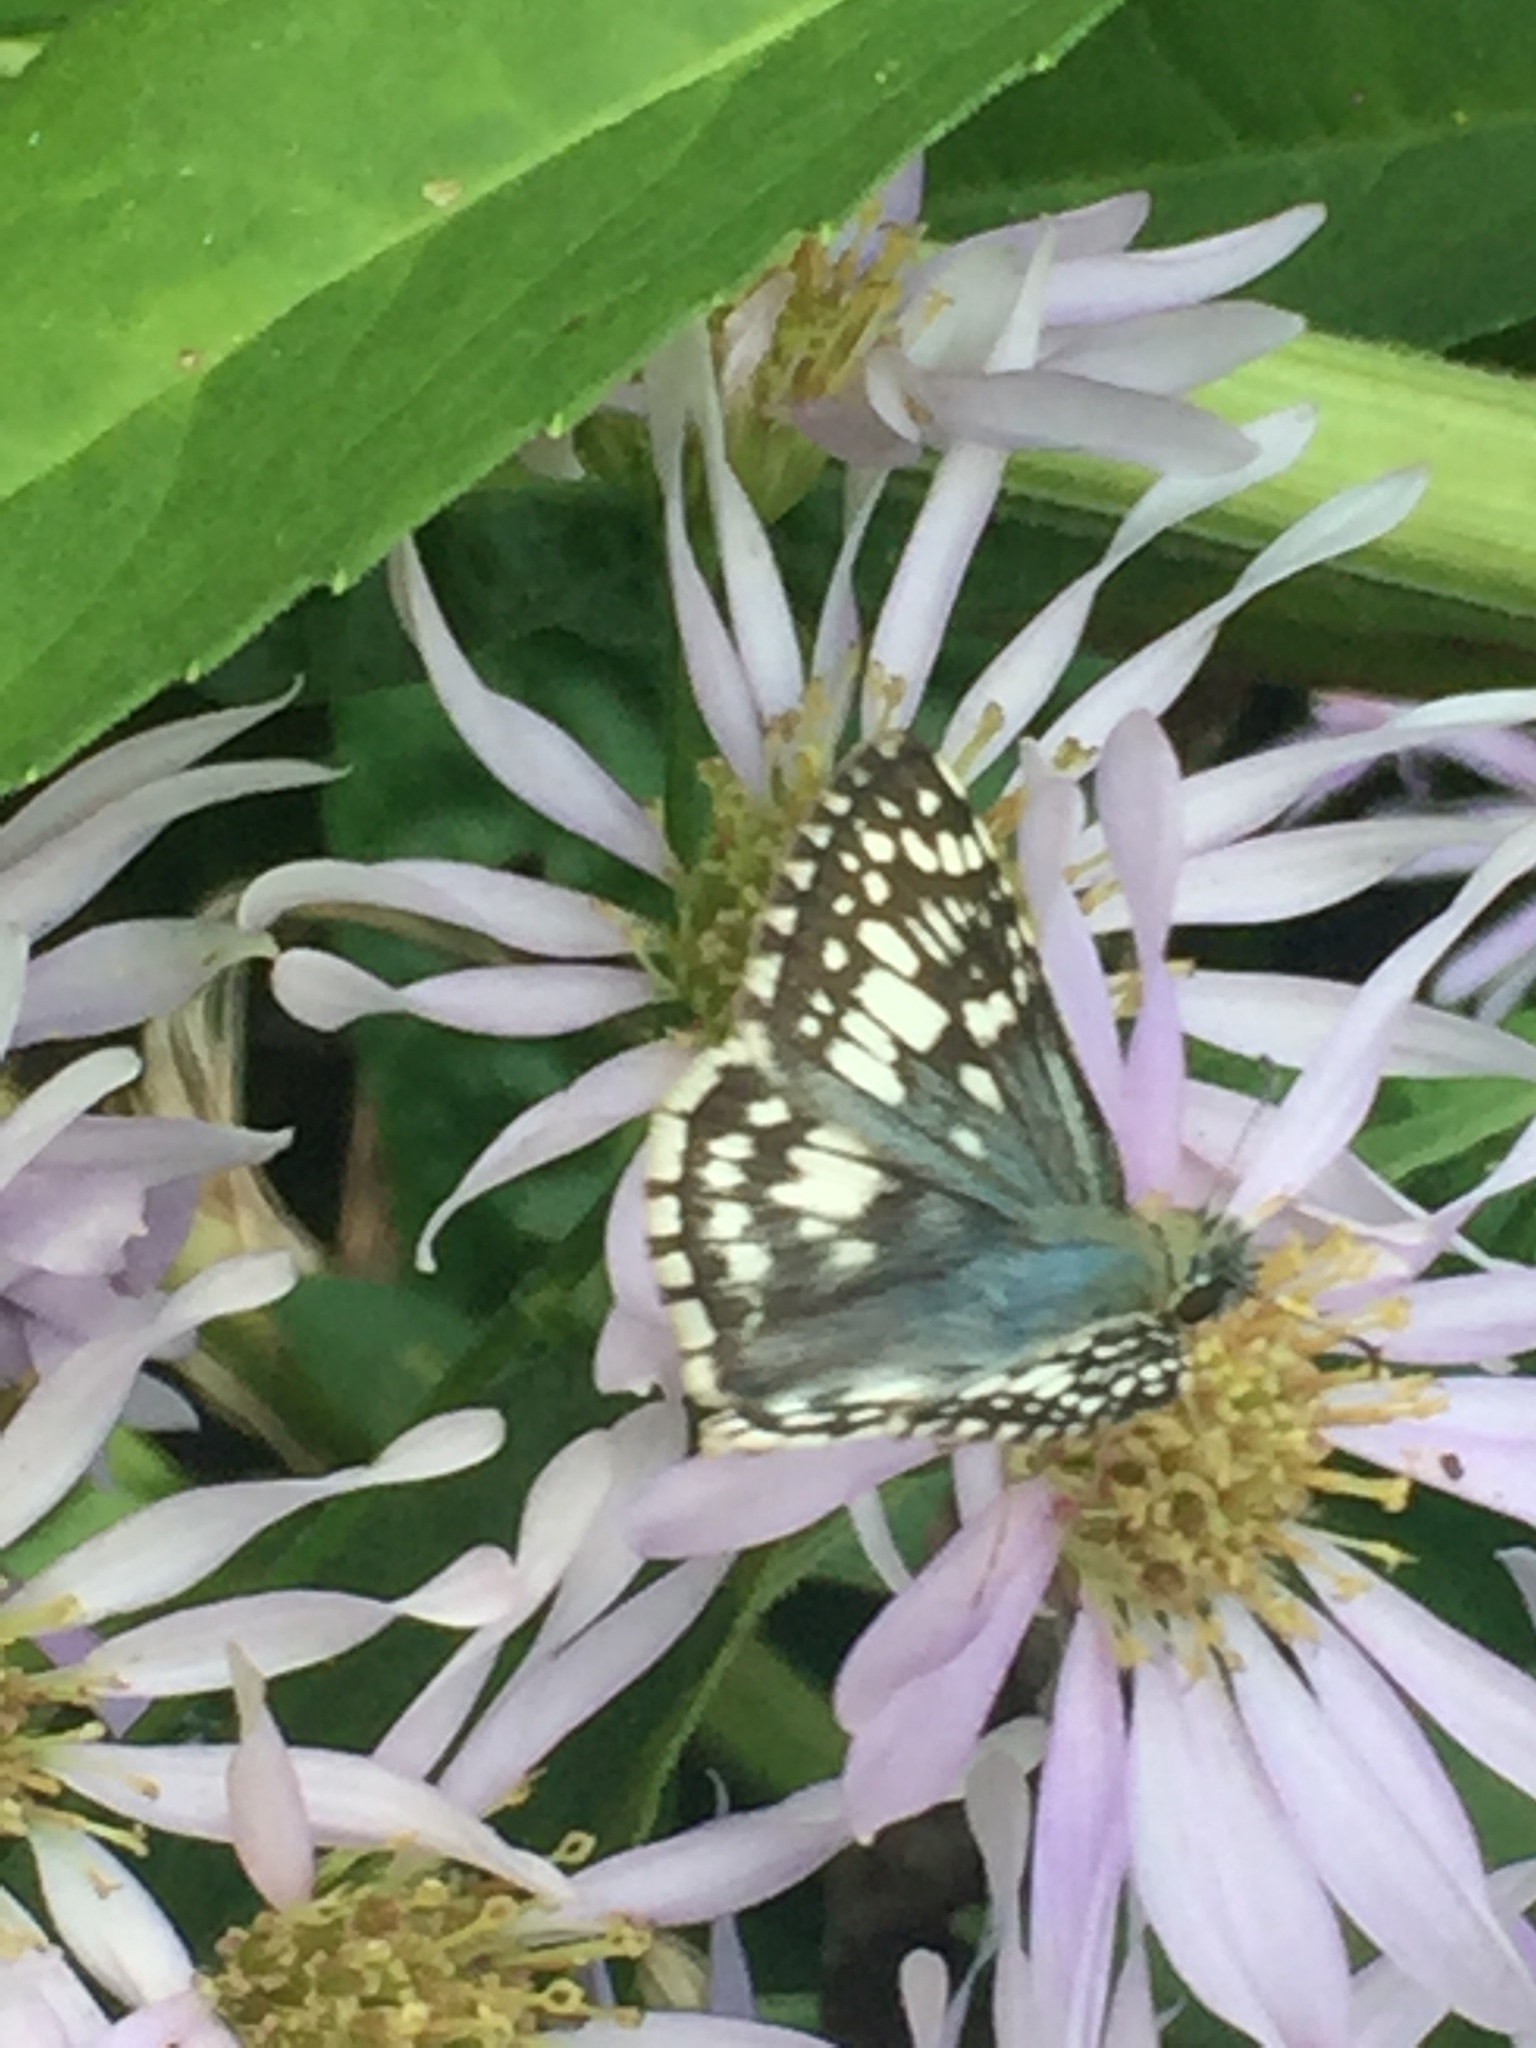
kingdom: Animalia
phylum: Arthropoda
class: Insecta
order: Lepidoptera
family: Hesperiidae
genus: Burnsius
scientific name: Burnsius communis
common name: Common checkered-skipper
